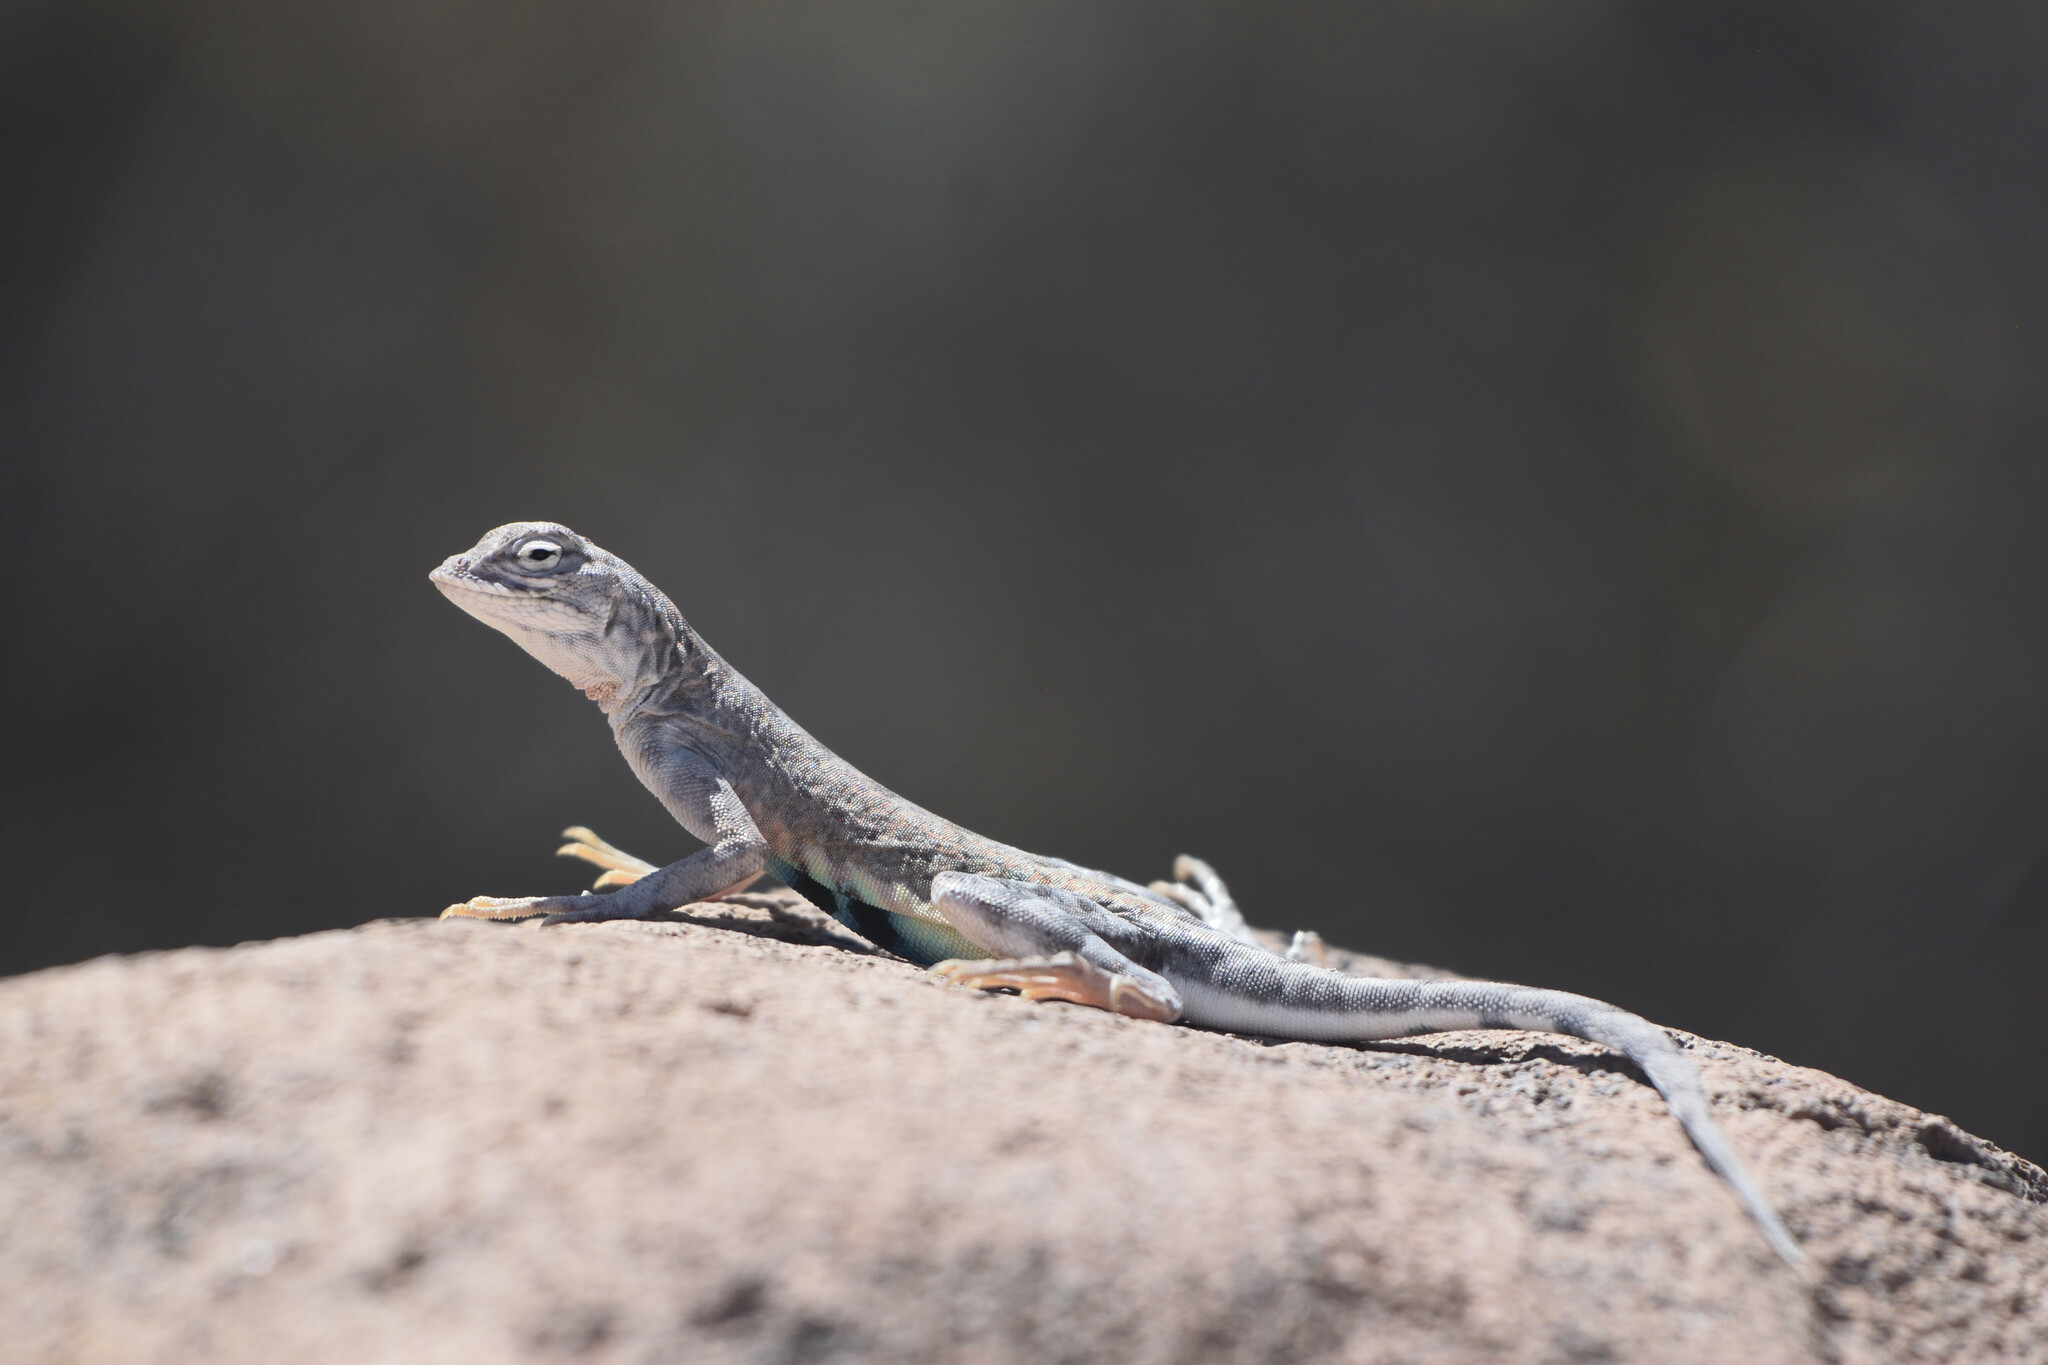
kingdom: Animalia
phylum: Chordata
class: Squamata
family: Phrynosomatidae
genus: Callisaurus
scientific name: Callisaurus draconoides
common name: Zebra-tailed lizard
